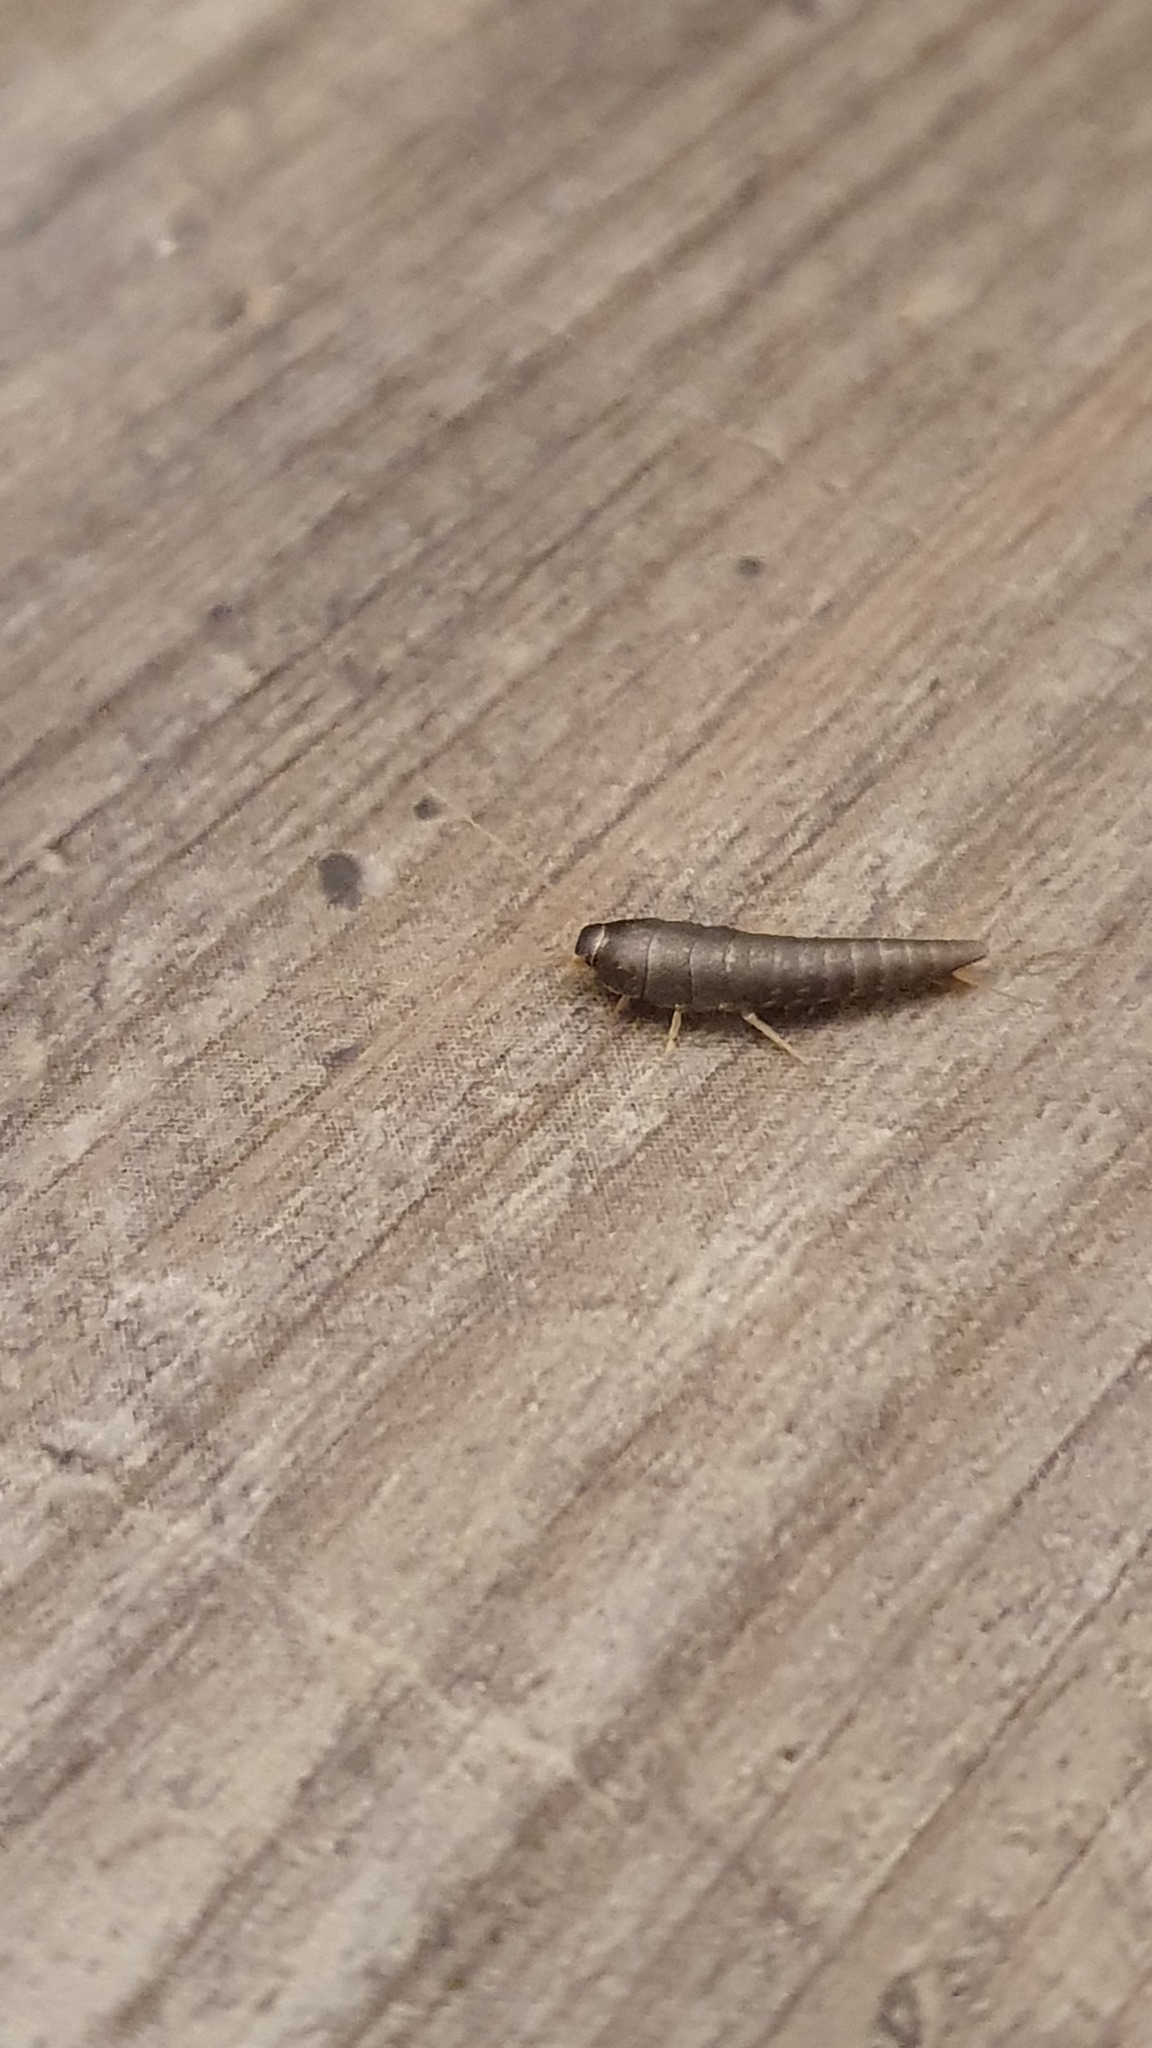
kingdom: Animalia
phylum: Arthropoda
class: Insecta
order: Zygentoma
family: Lepismatidae
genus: Lepisma
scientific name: Lepisma saccharinum
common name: Silverfish
